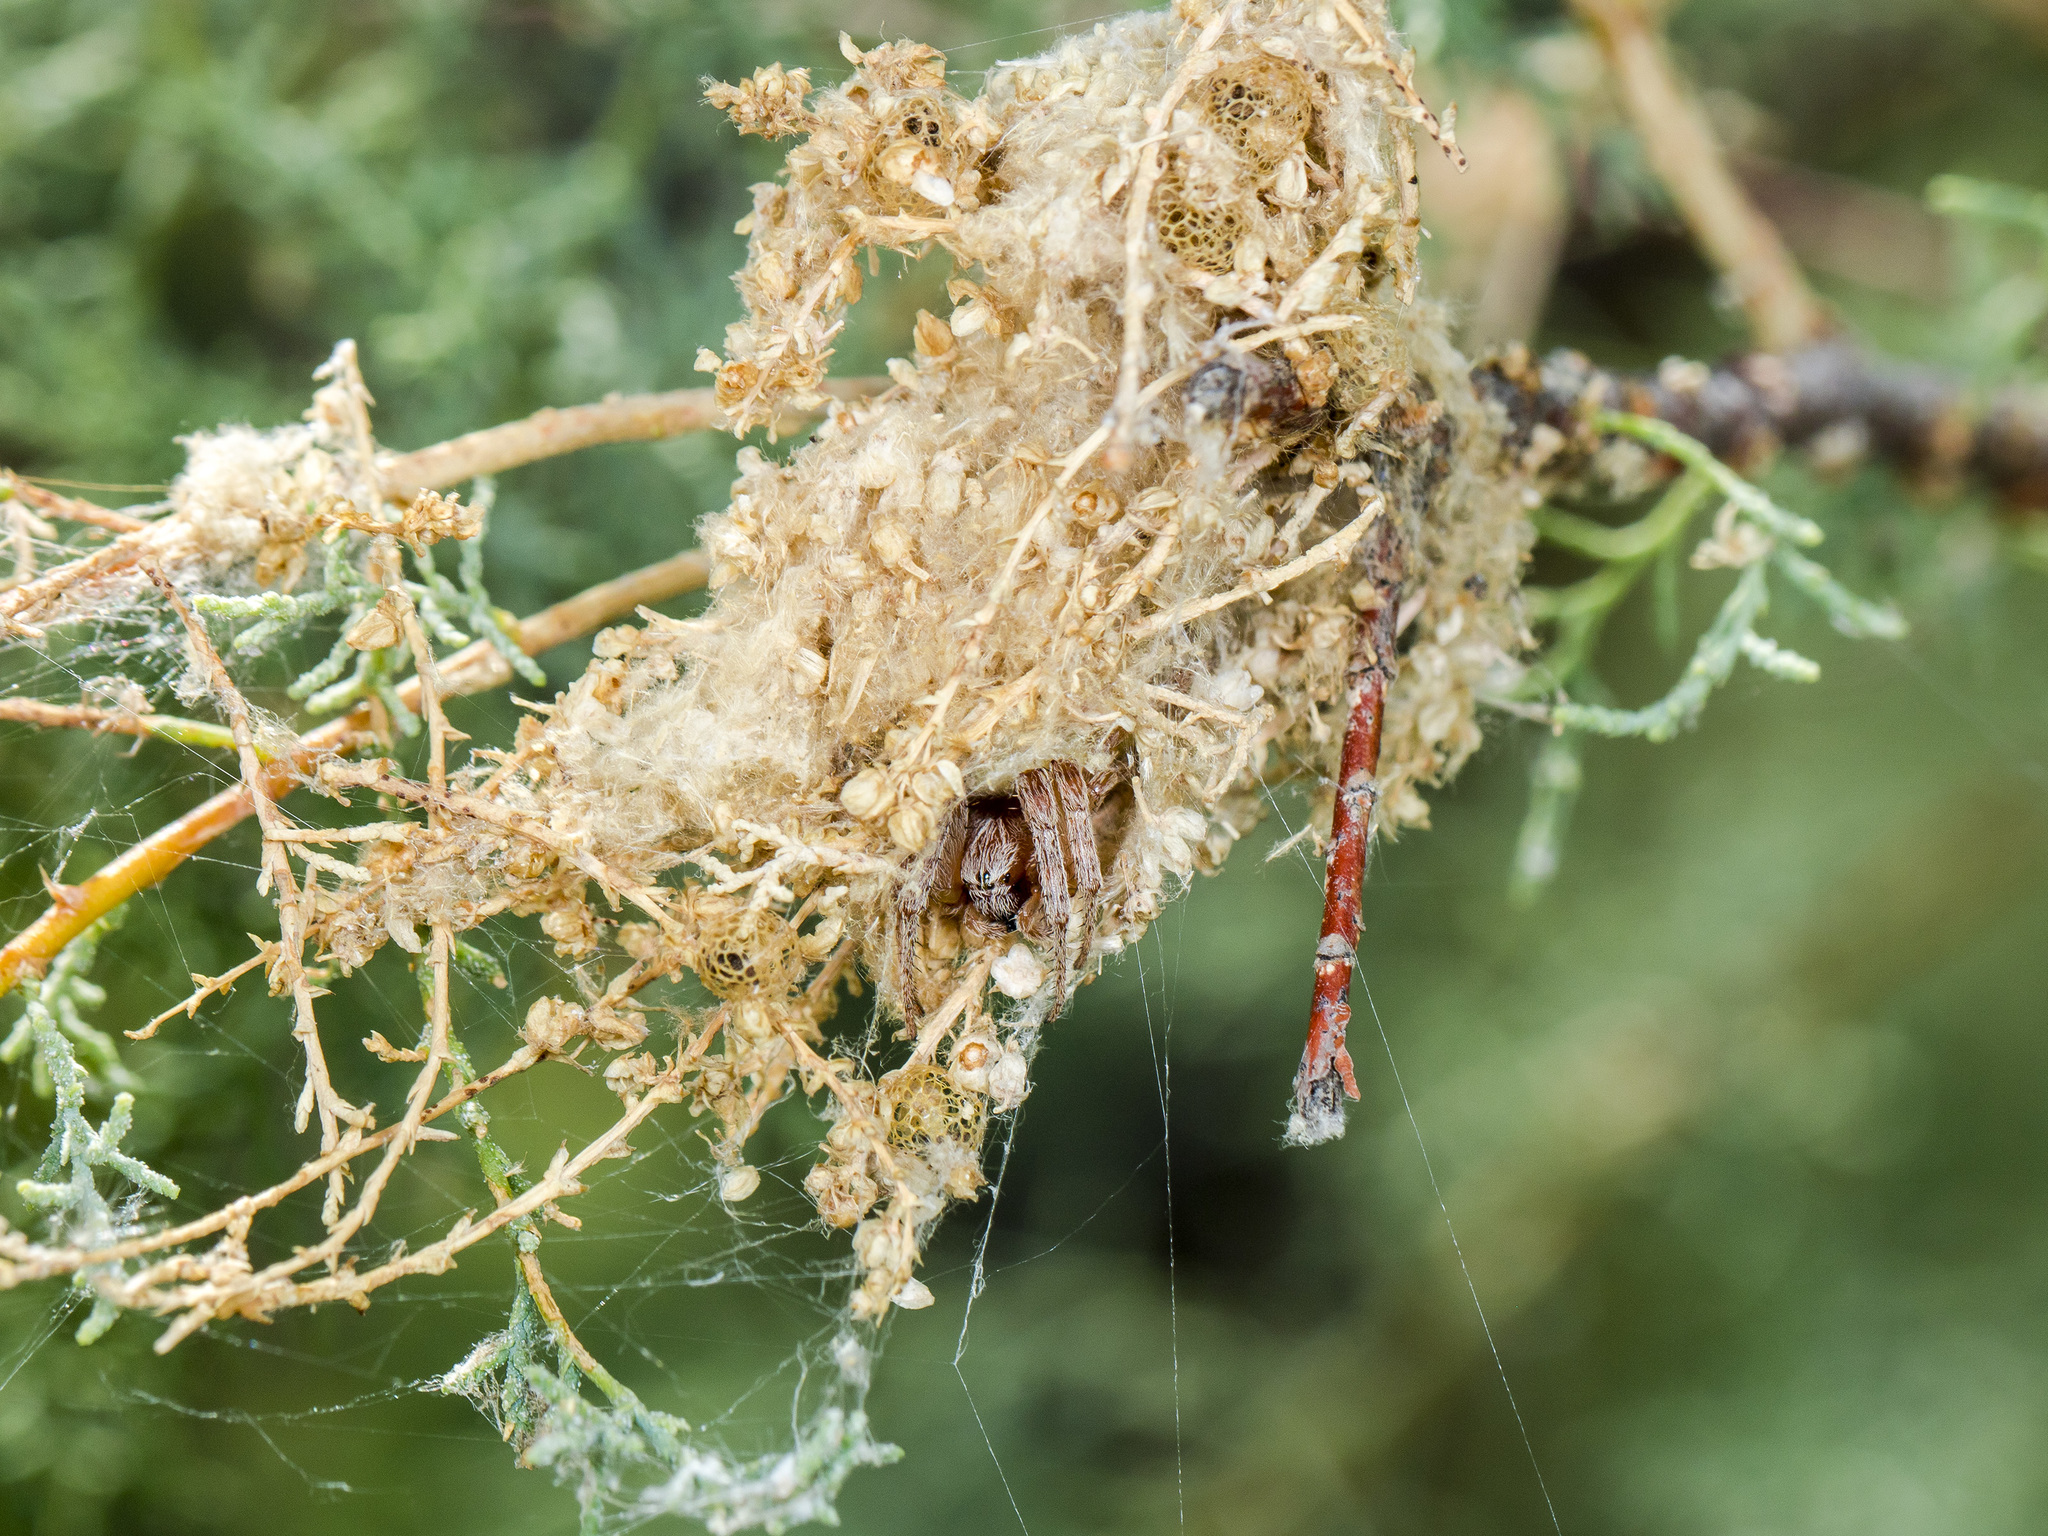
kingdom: Animalia
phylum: Arthropoda
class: Arachnida
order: Araneae
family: Araneidae
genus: Larinioides
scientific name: Larinioides suspicax
